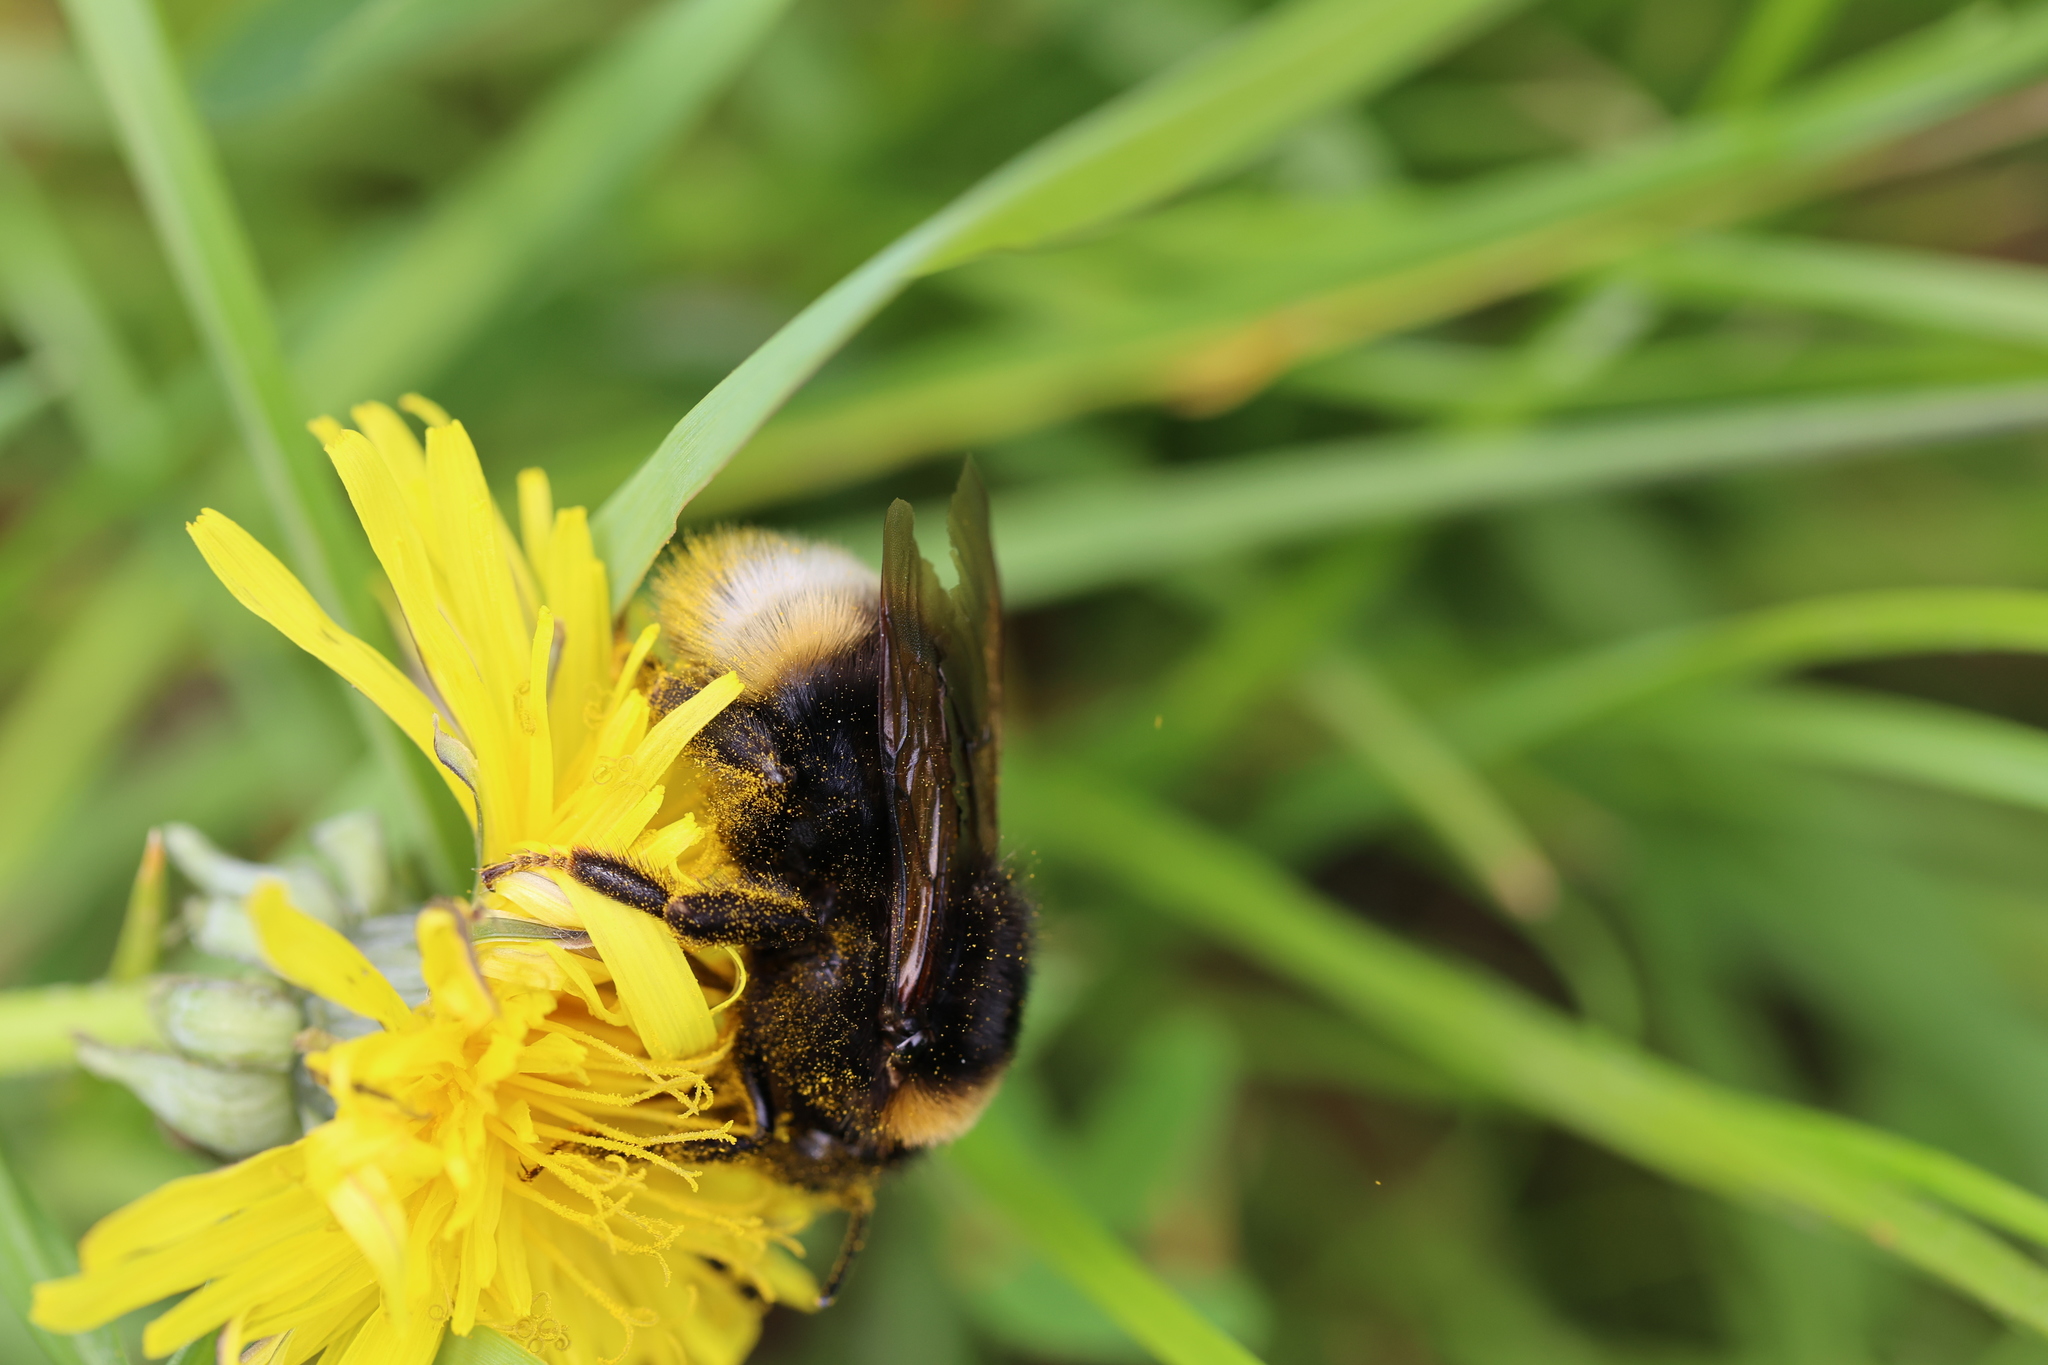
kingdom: Animalia
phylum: Arthropoda
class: Insecta
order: Hymenoptera
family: Apidae
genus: Bombus
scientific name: Bombus vestalis
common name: Vestal cuckoo bee
